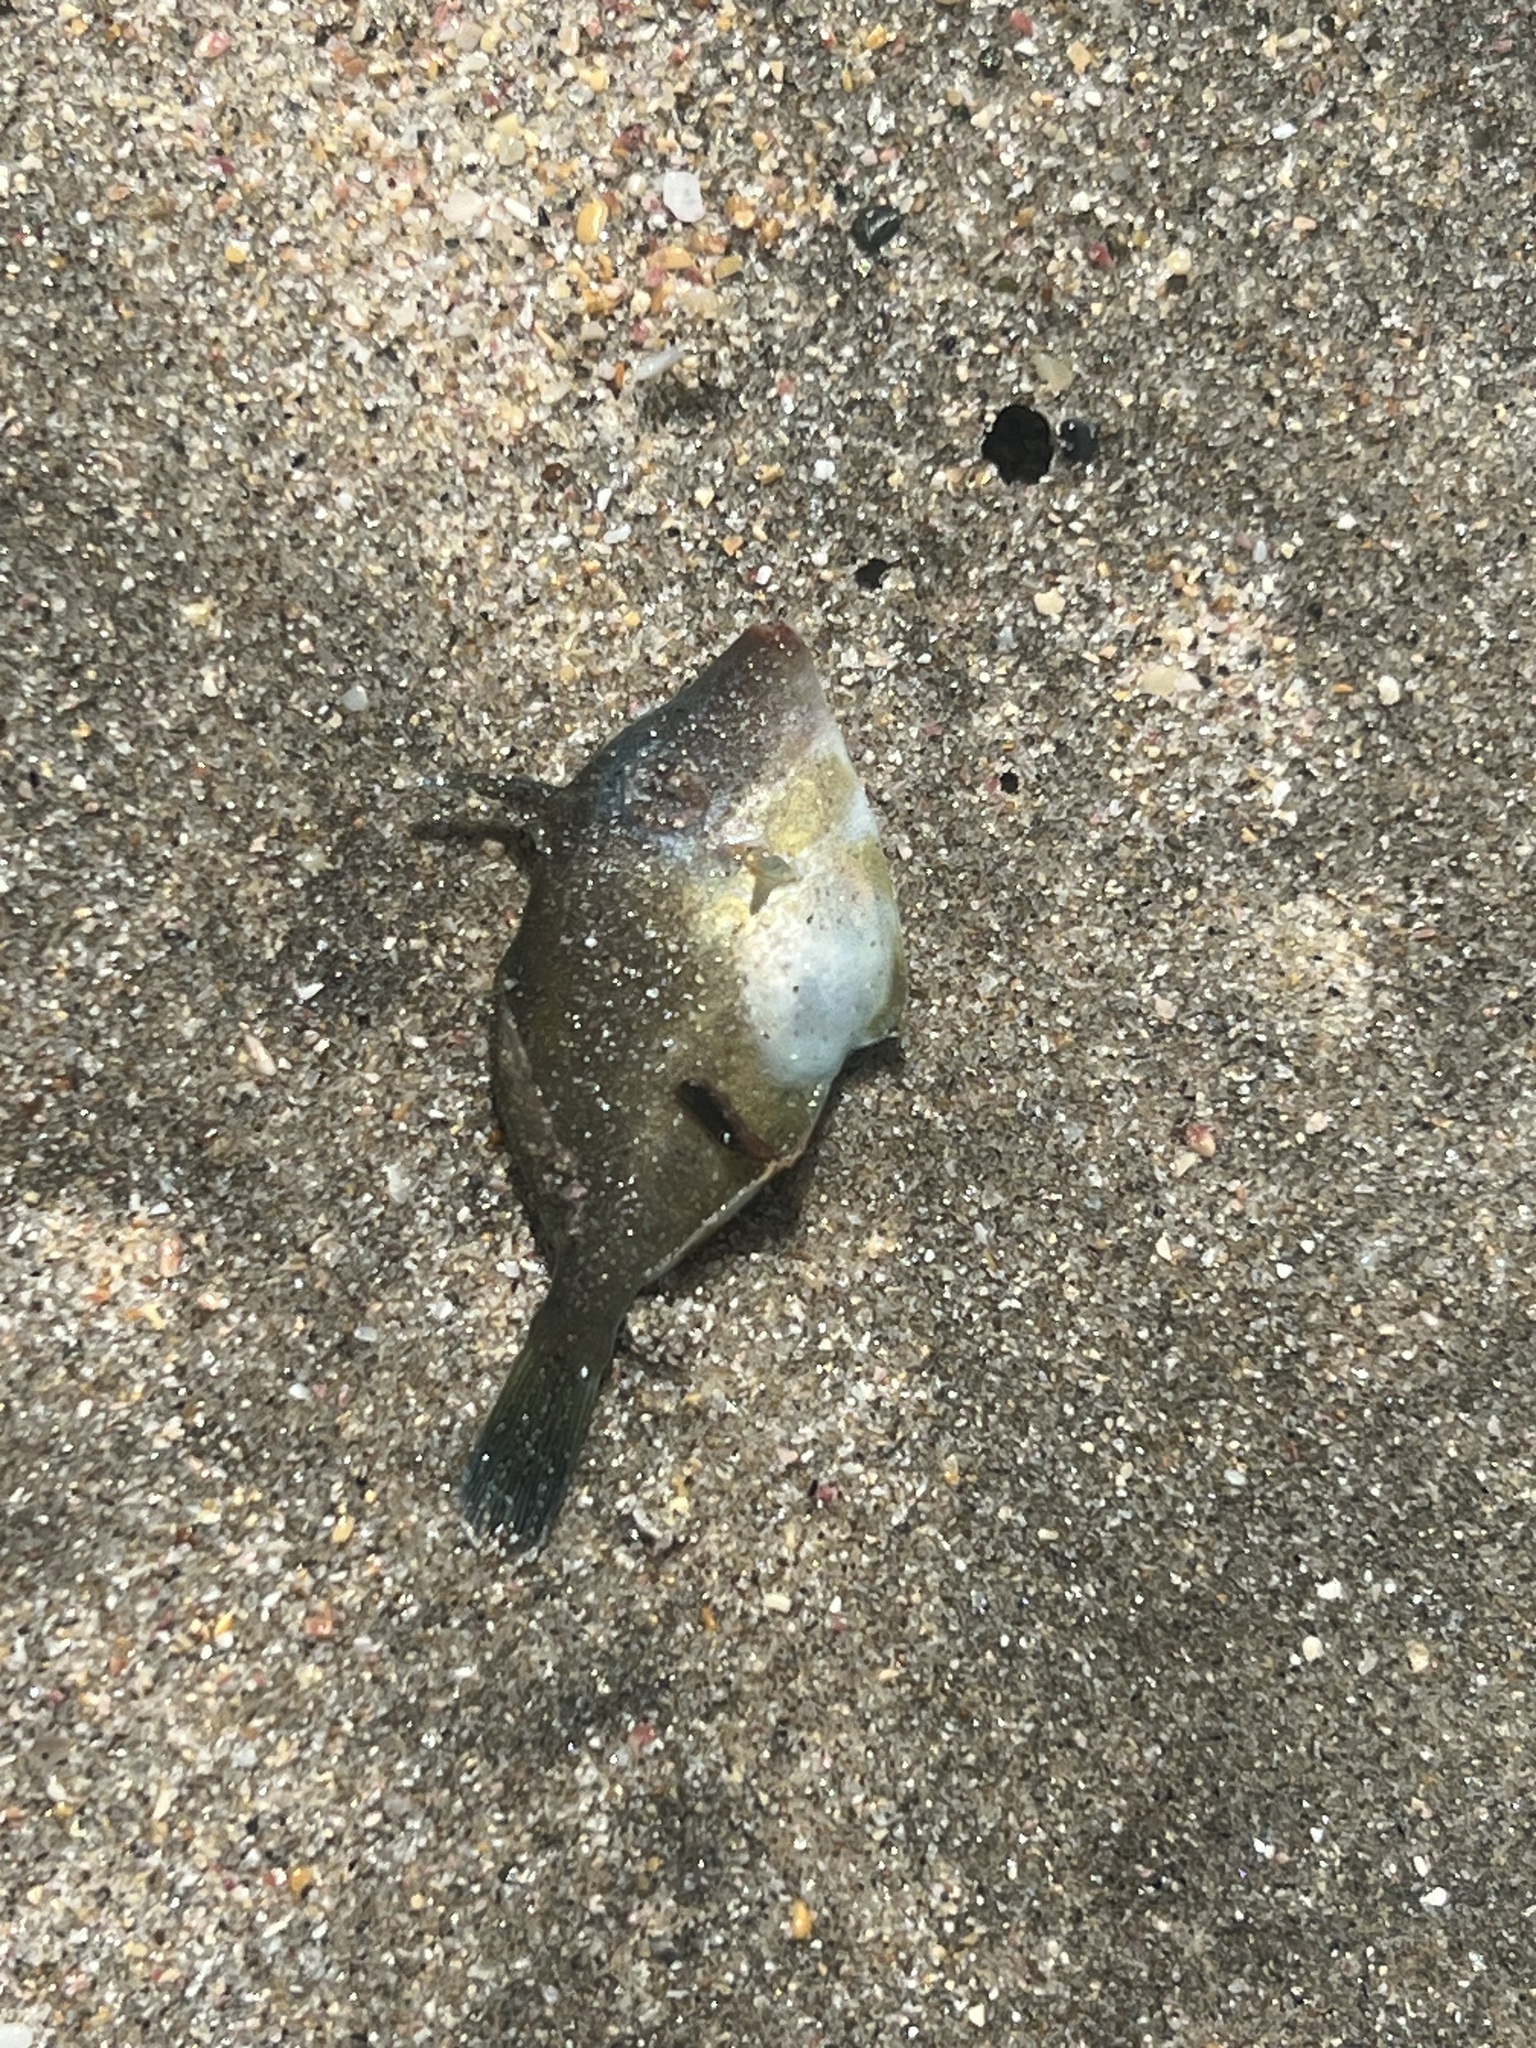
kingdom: Animalia
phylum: Chordata
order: Tetraodontiformes
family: Monacanthidae
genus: Meuschenia
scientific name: Meuschenia scaber
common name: Cosmopolitan leatherjacket
